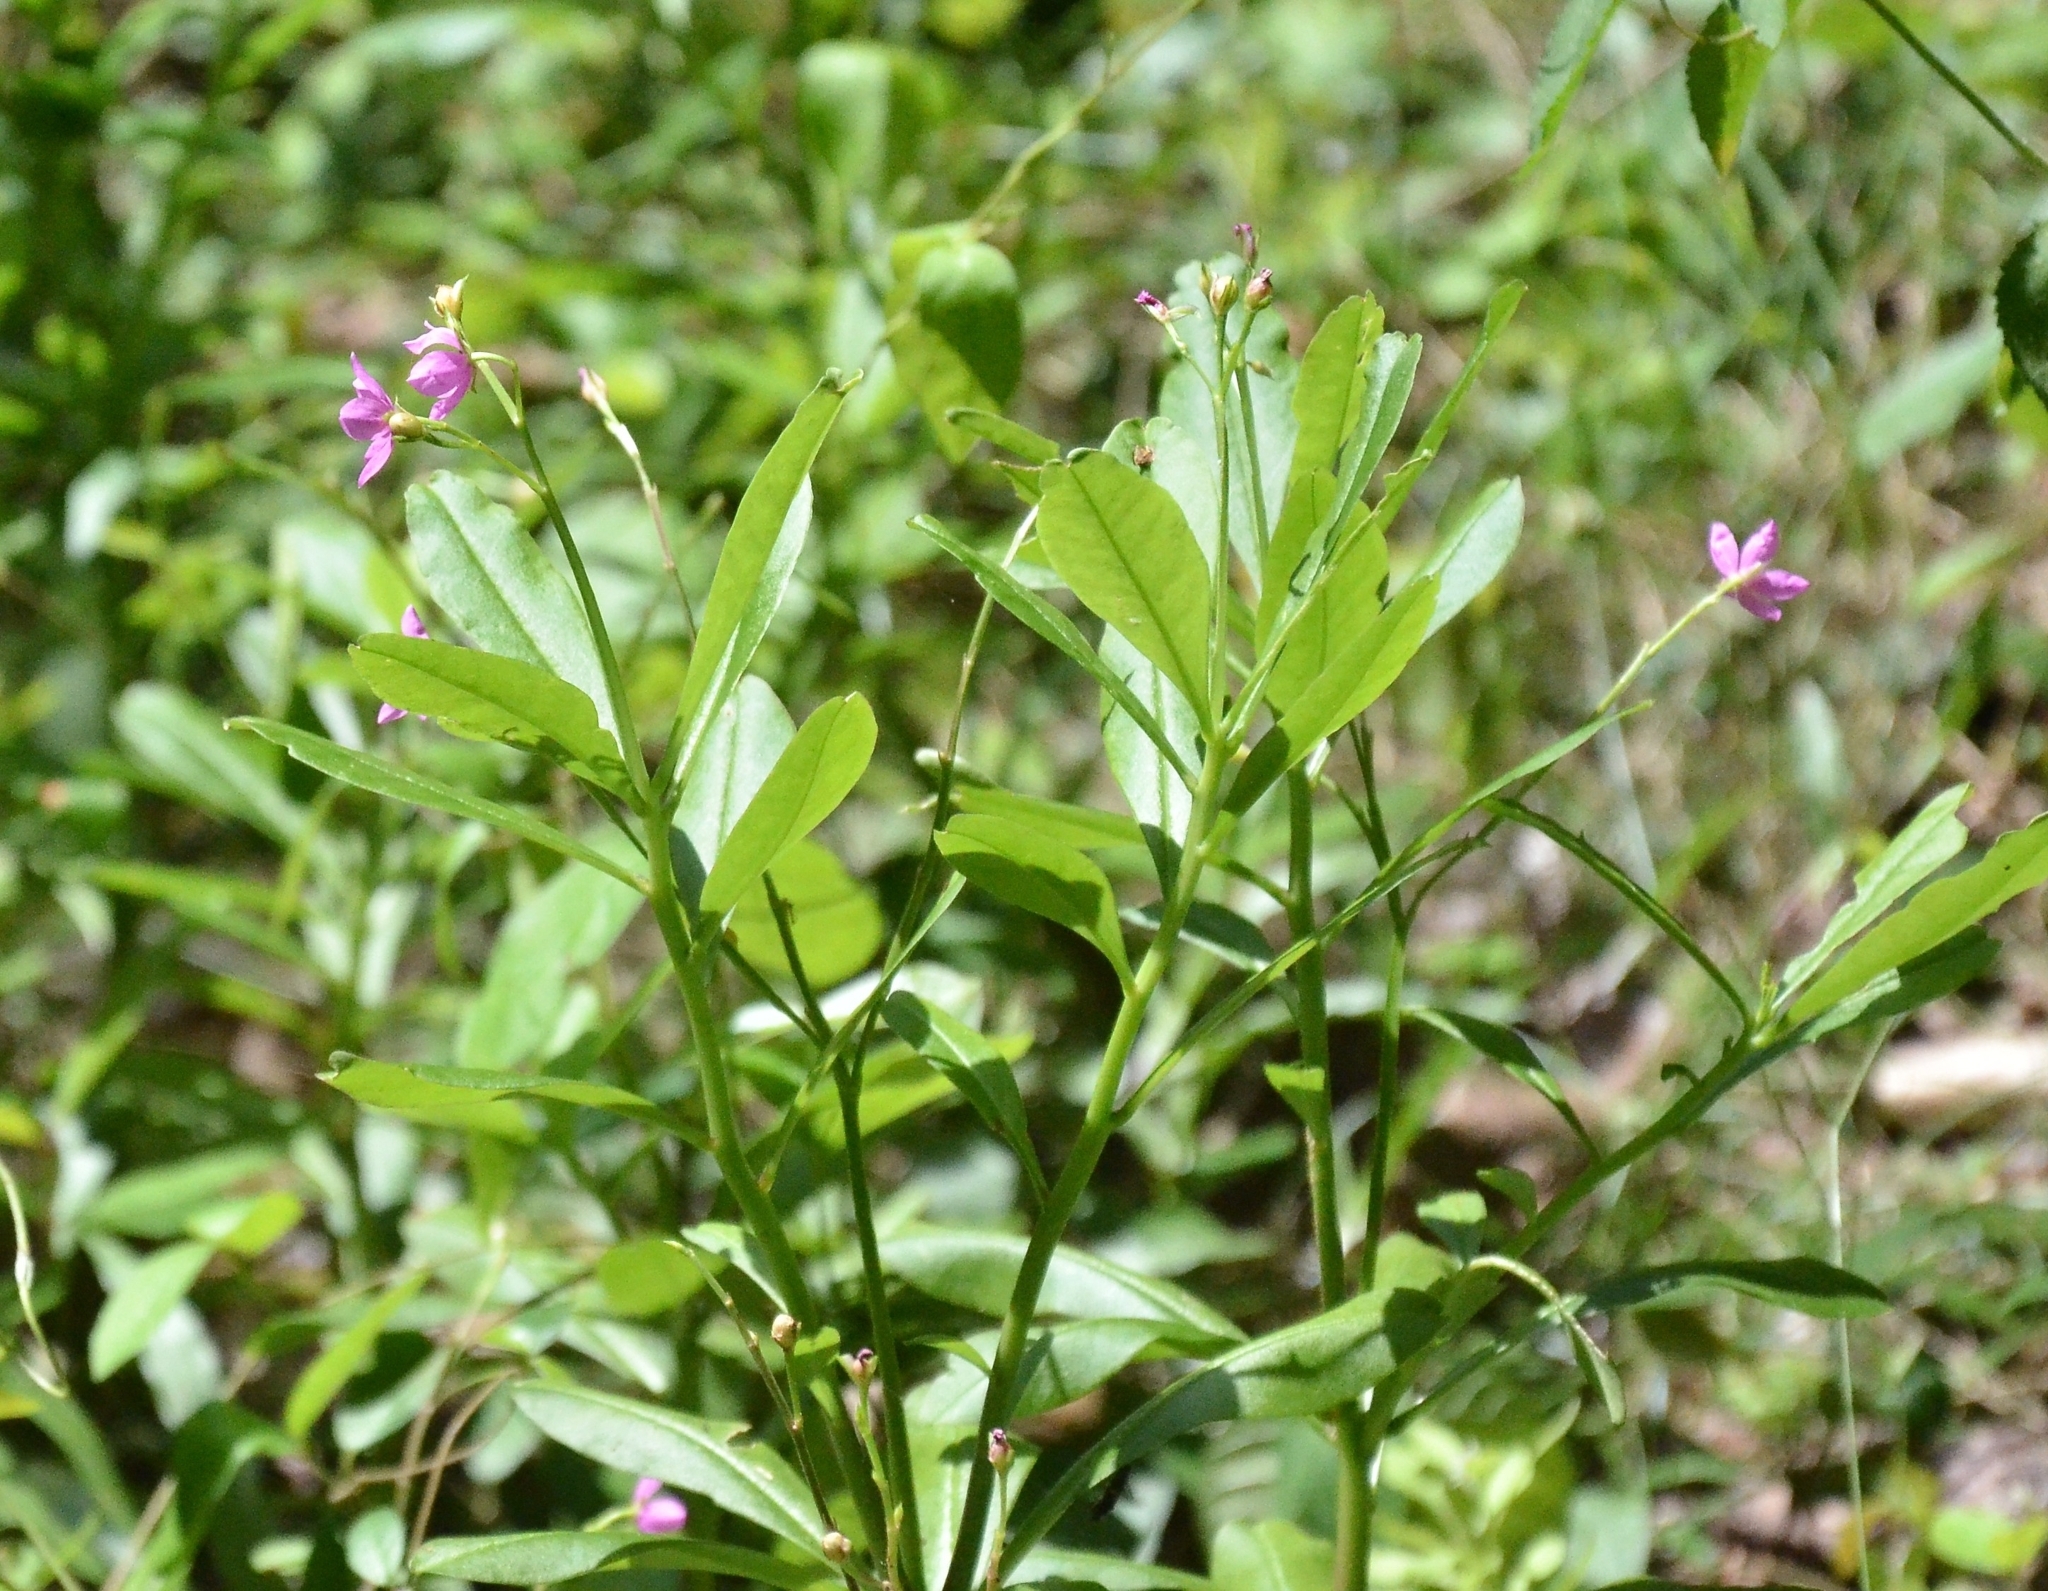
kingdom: Plantae
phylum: Tracheophyta
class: Magnoliopsida
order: Caryophyllales
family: Talinaceae
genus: Talinum
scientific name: Talinum fruticosum
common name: Verdolaga-francesa
